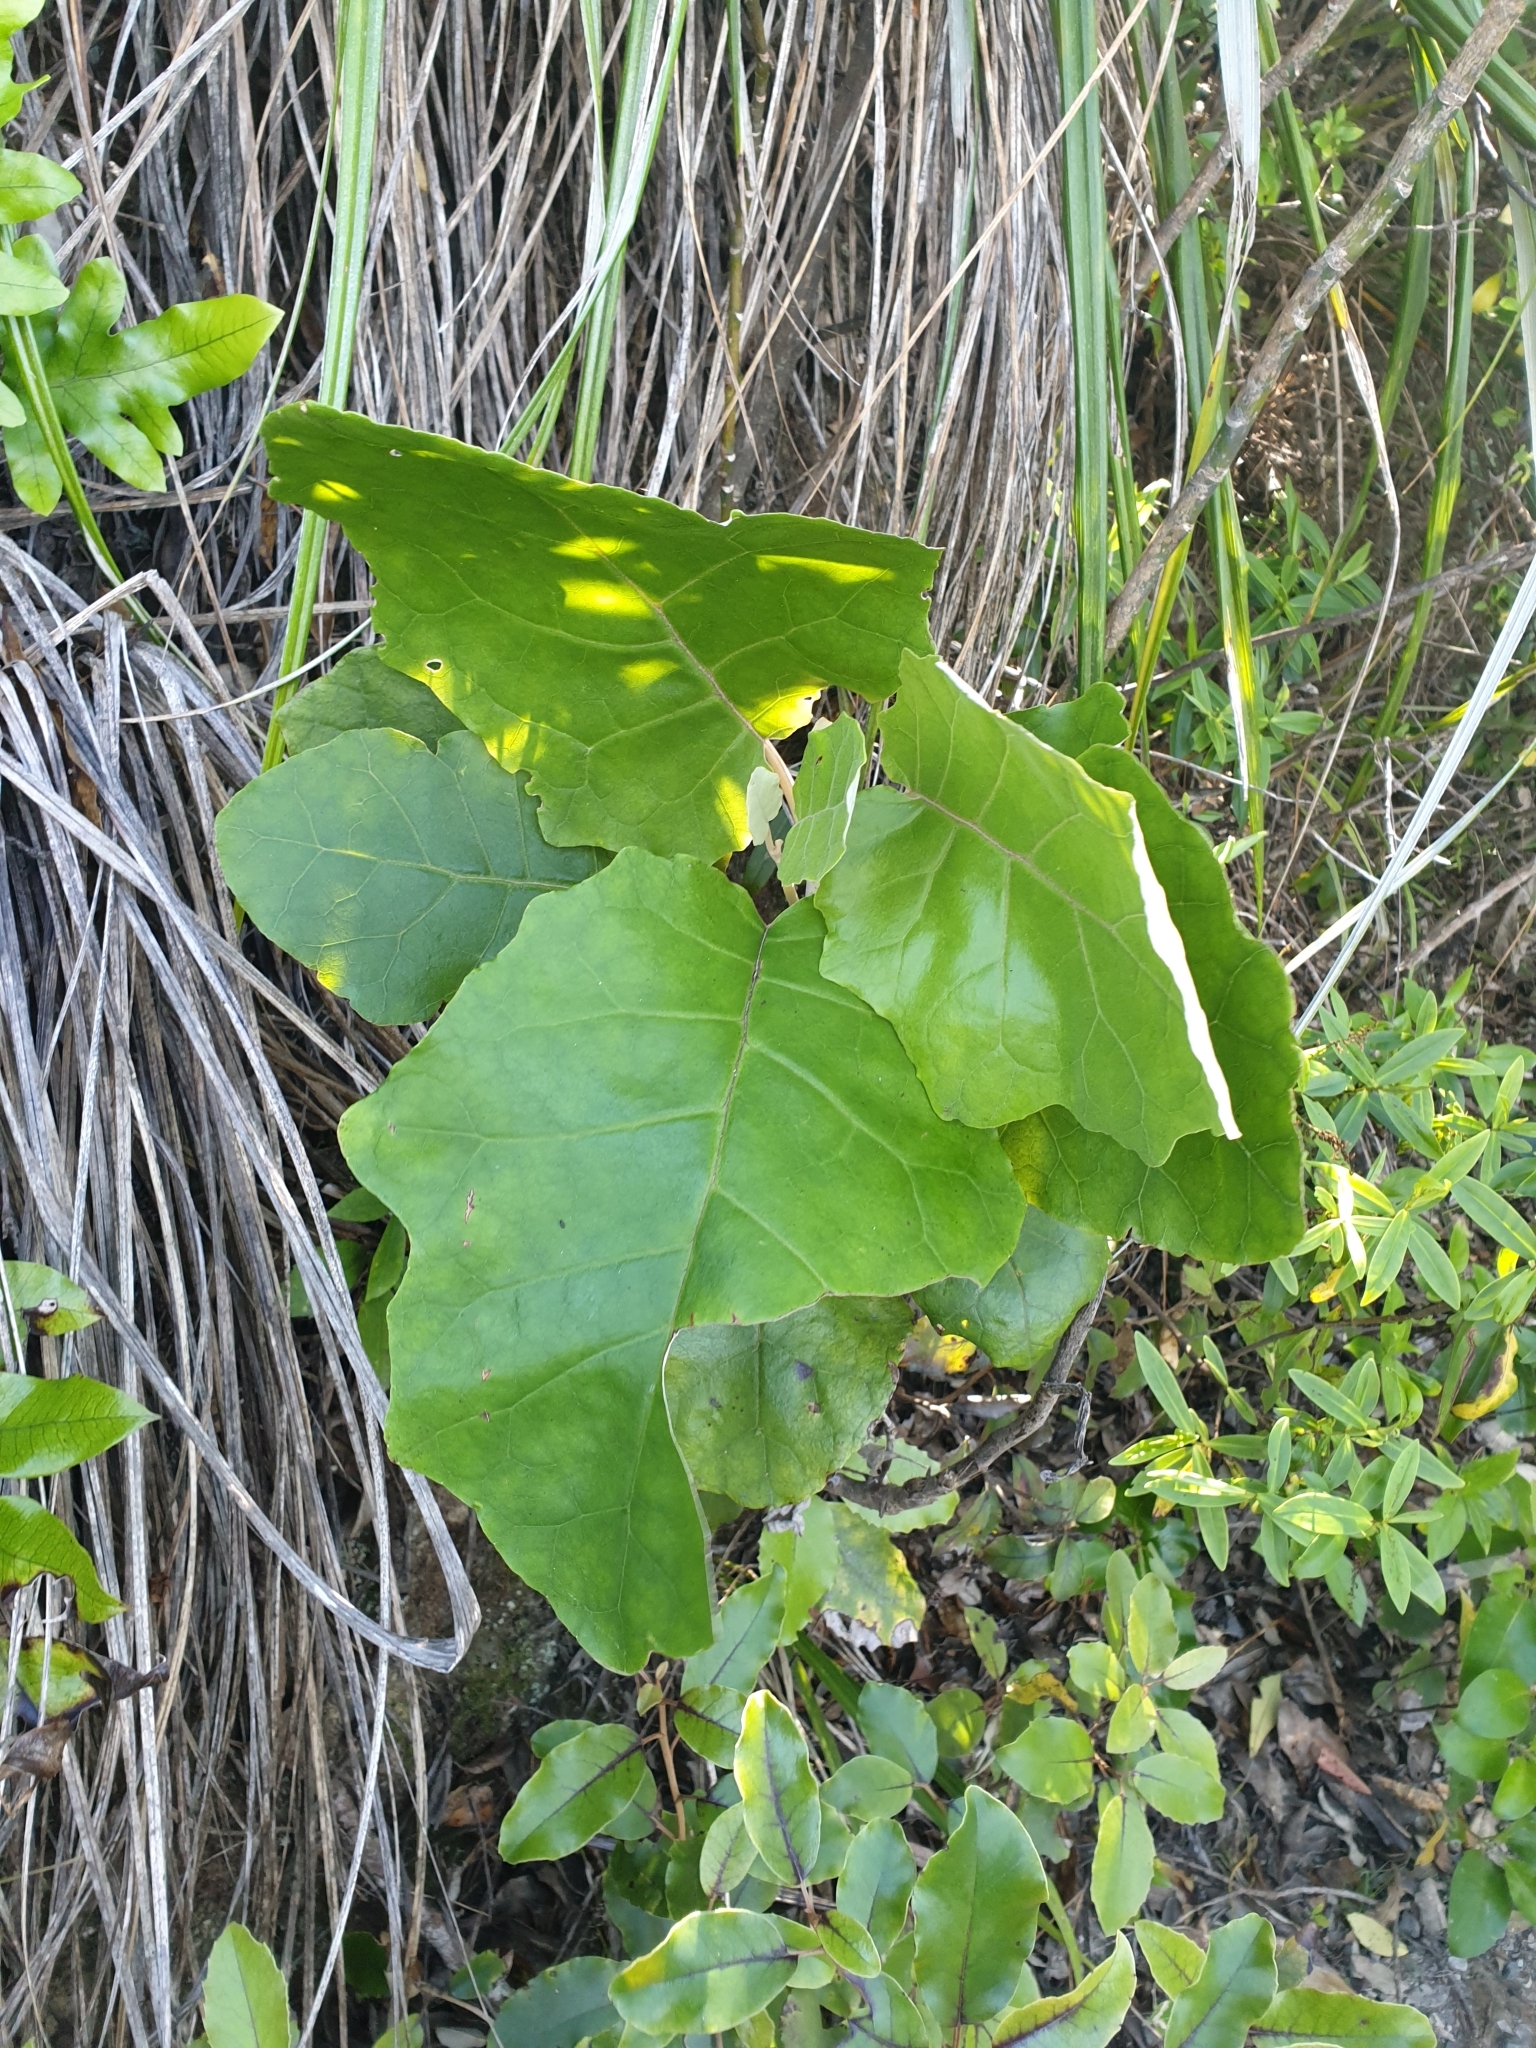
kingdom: Plantae
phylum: Tracheophyta
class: Magnoliopsida
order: Asterales
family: Asteraceae
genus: Brachyglottis
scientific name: Brachyglottis repanda
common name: Hedge ragwort
